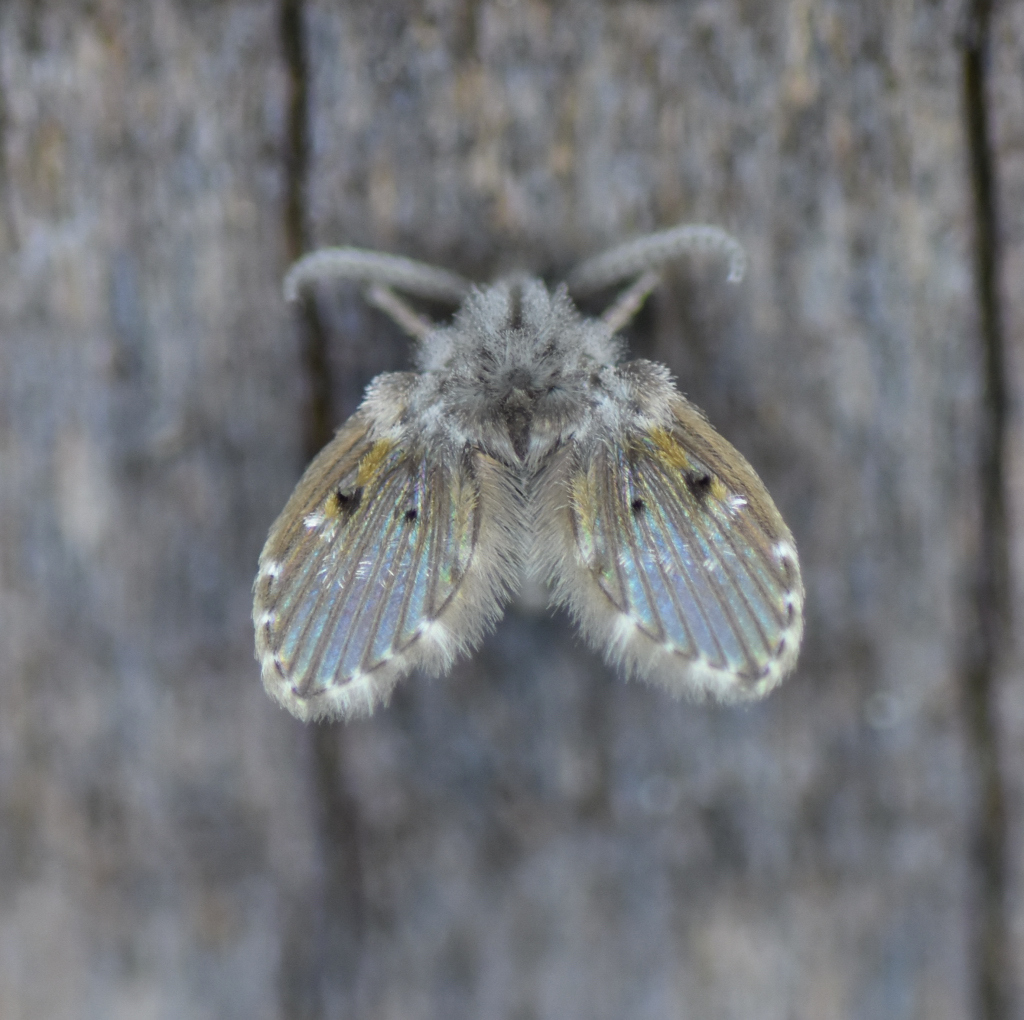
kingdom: Animalia
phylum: Arthropoda
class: Insecta
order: Diptera
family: Psychodidae
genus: Clogmia
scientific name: Clogmia albipunctatus
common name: White-spotted moth fly
